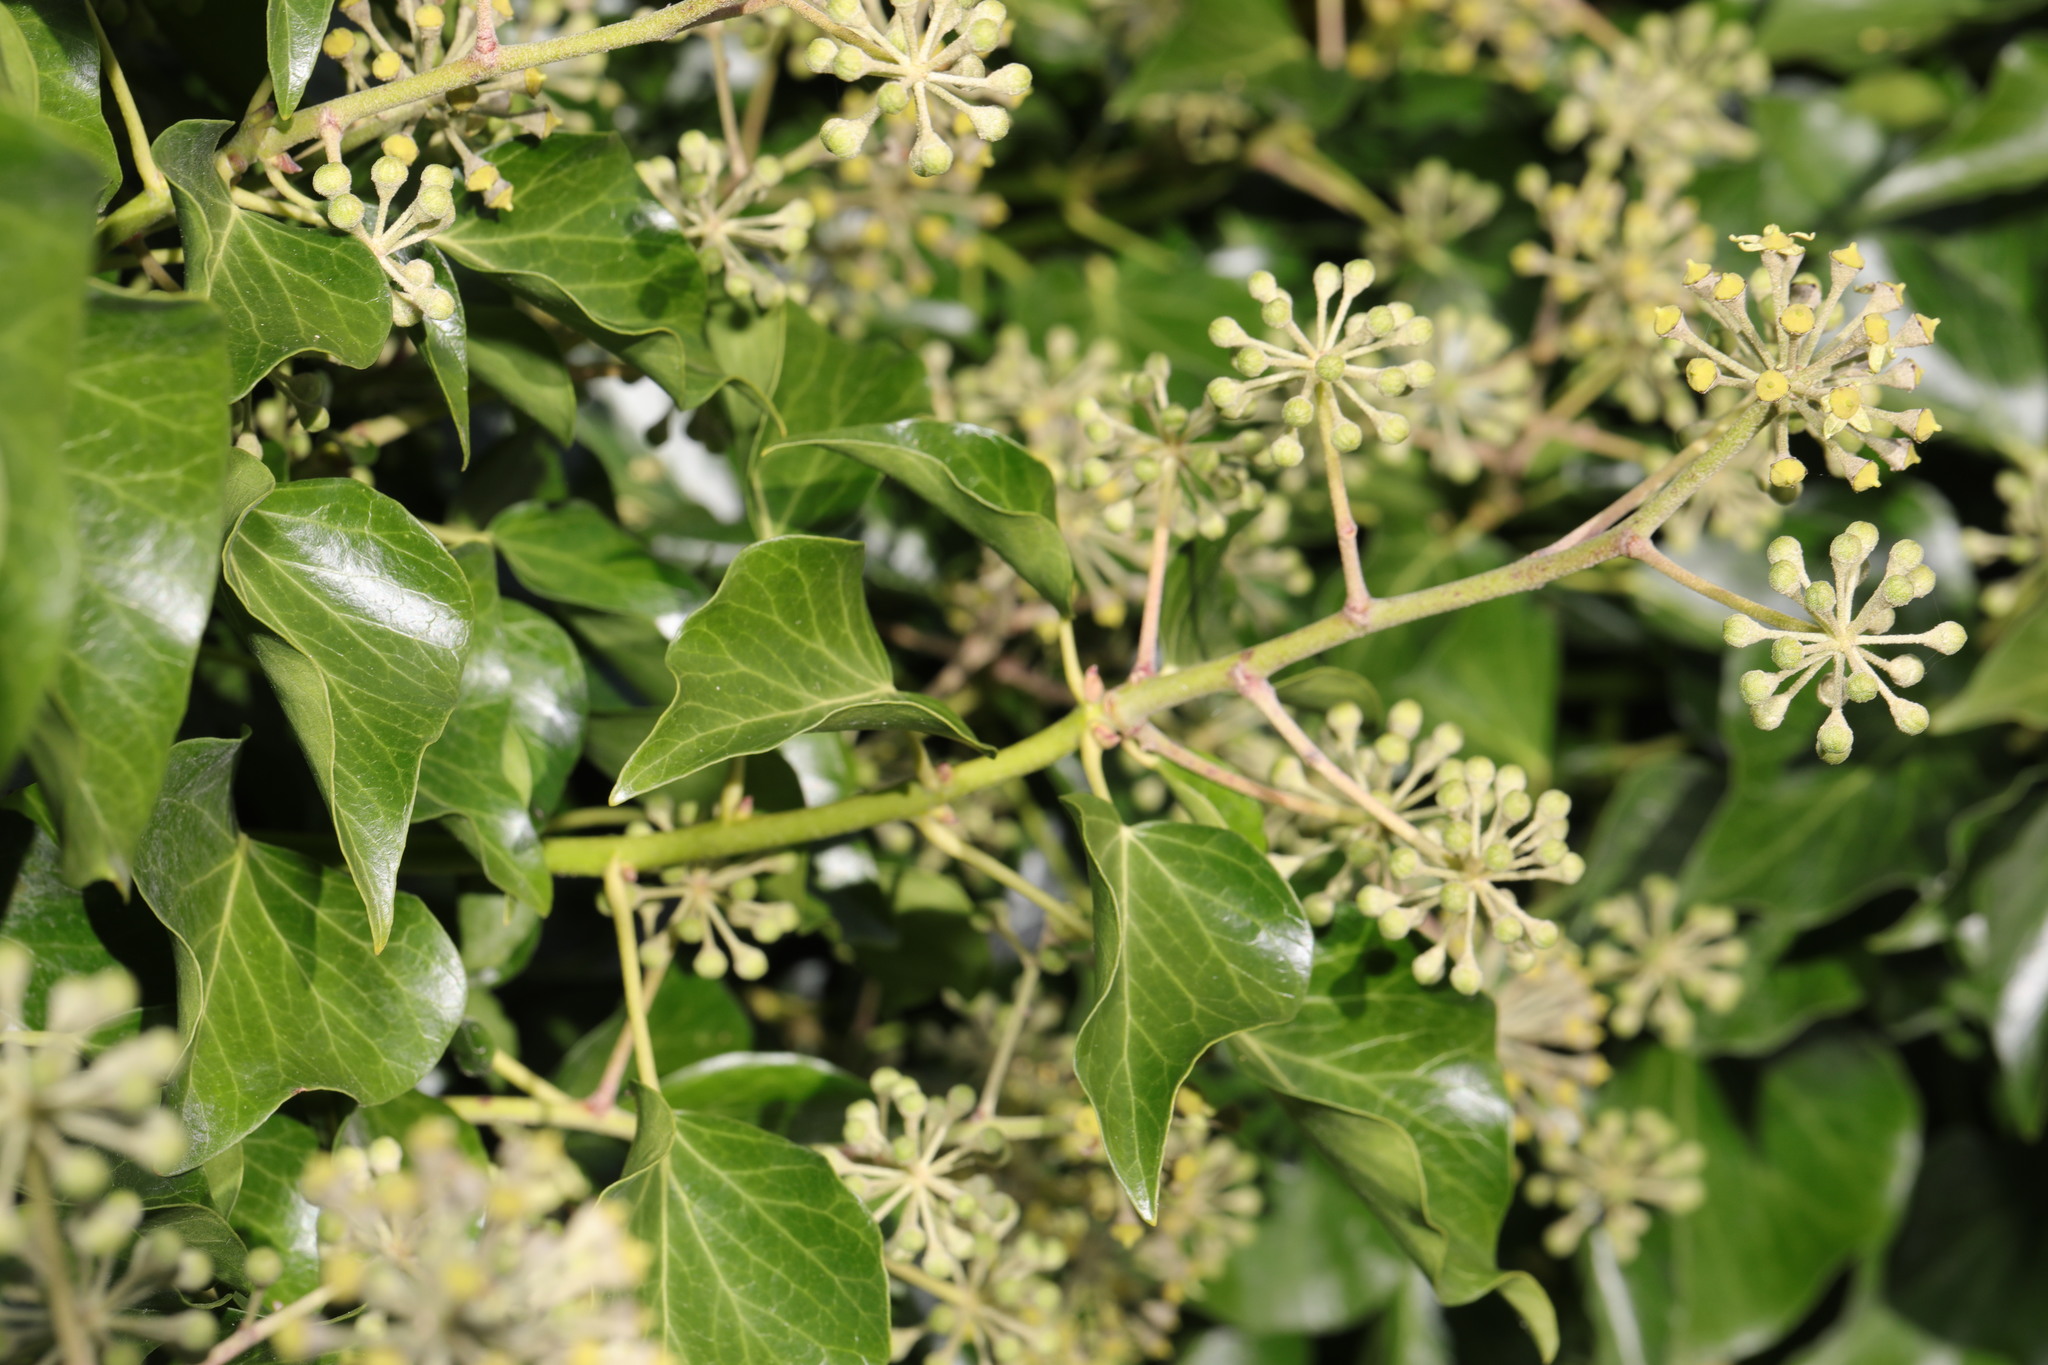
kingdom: Plantae
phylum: Tracheophyta
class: Magnoliopsida
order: Apiales
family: Araliaceae
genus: Hedera
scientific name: Hedera helix
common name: Ivy
